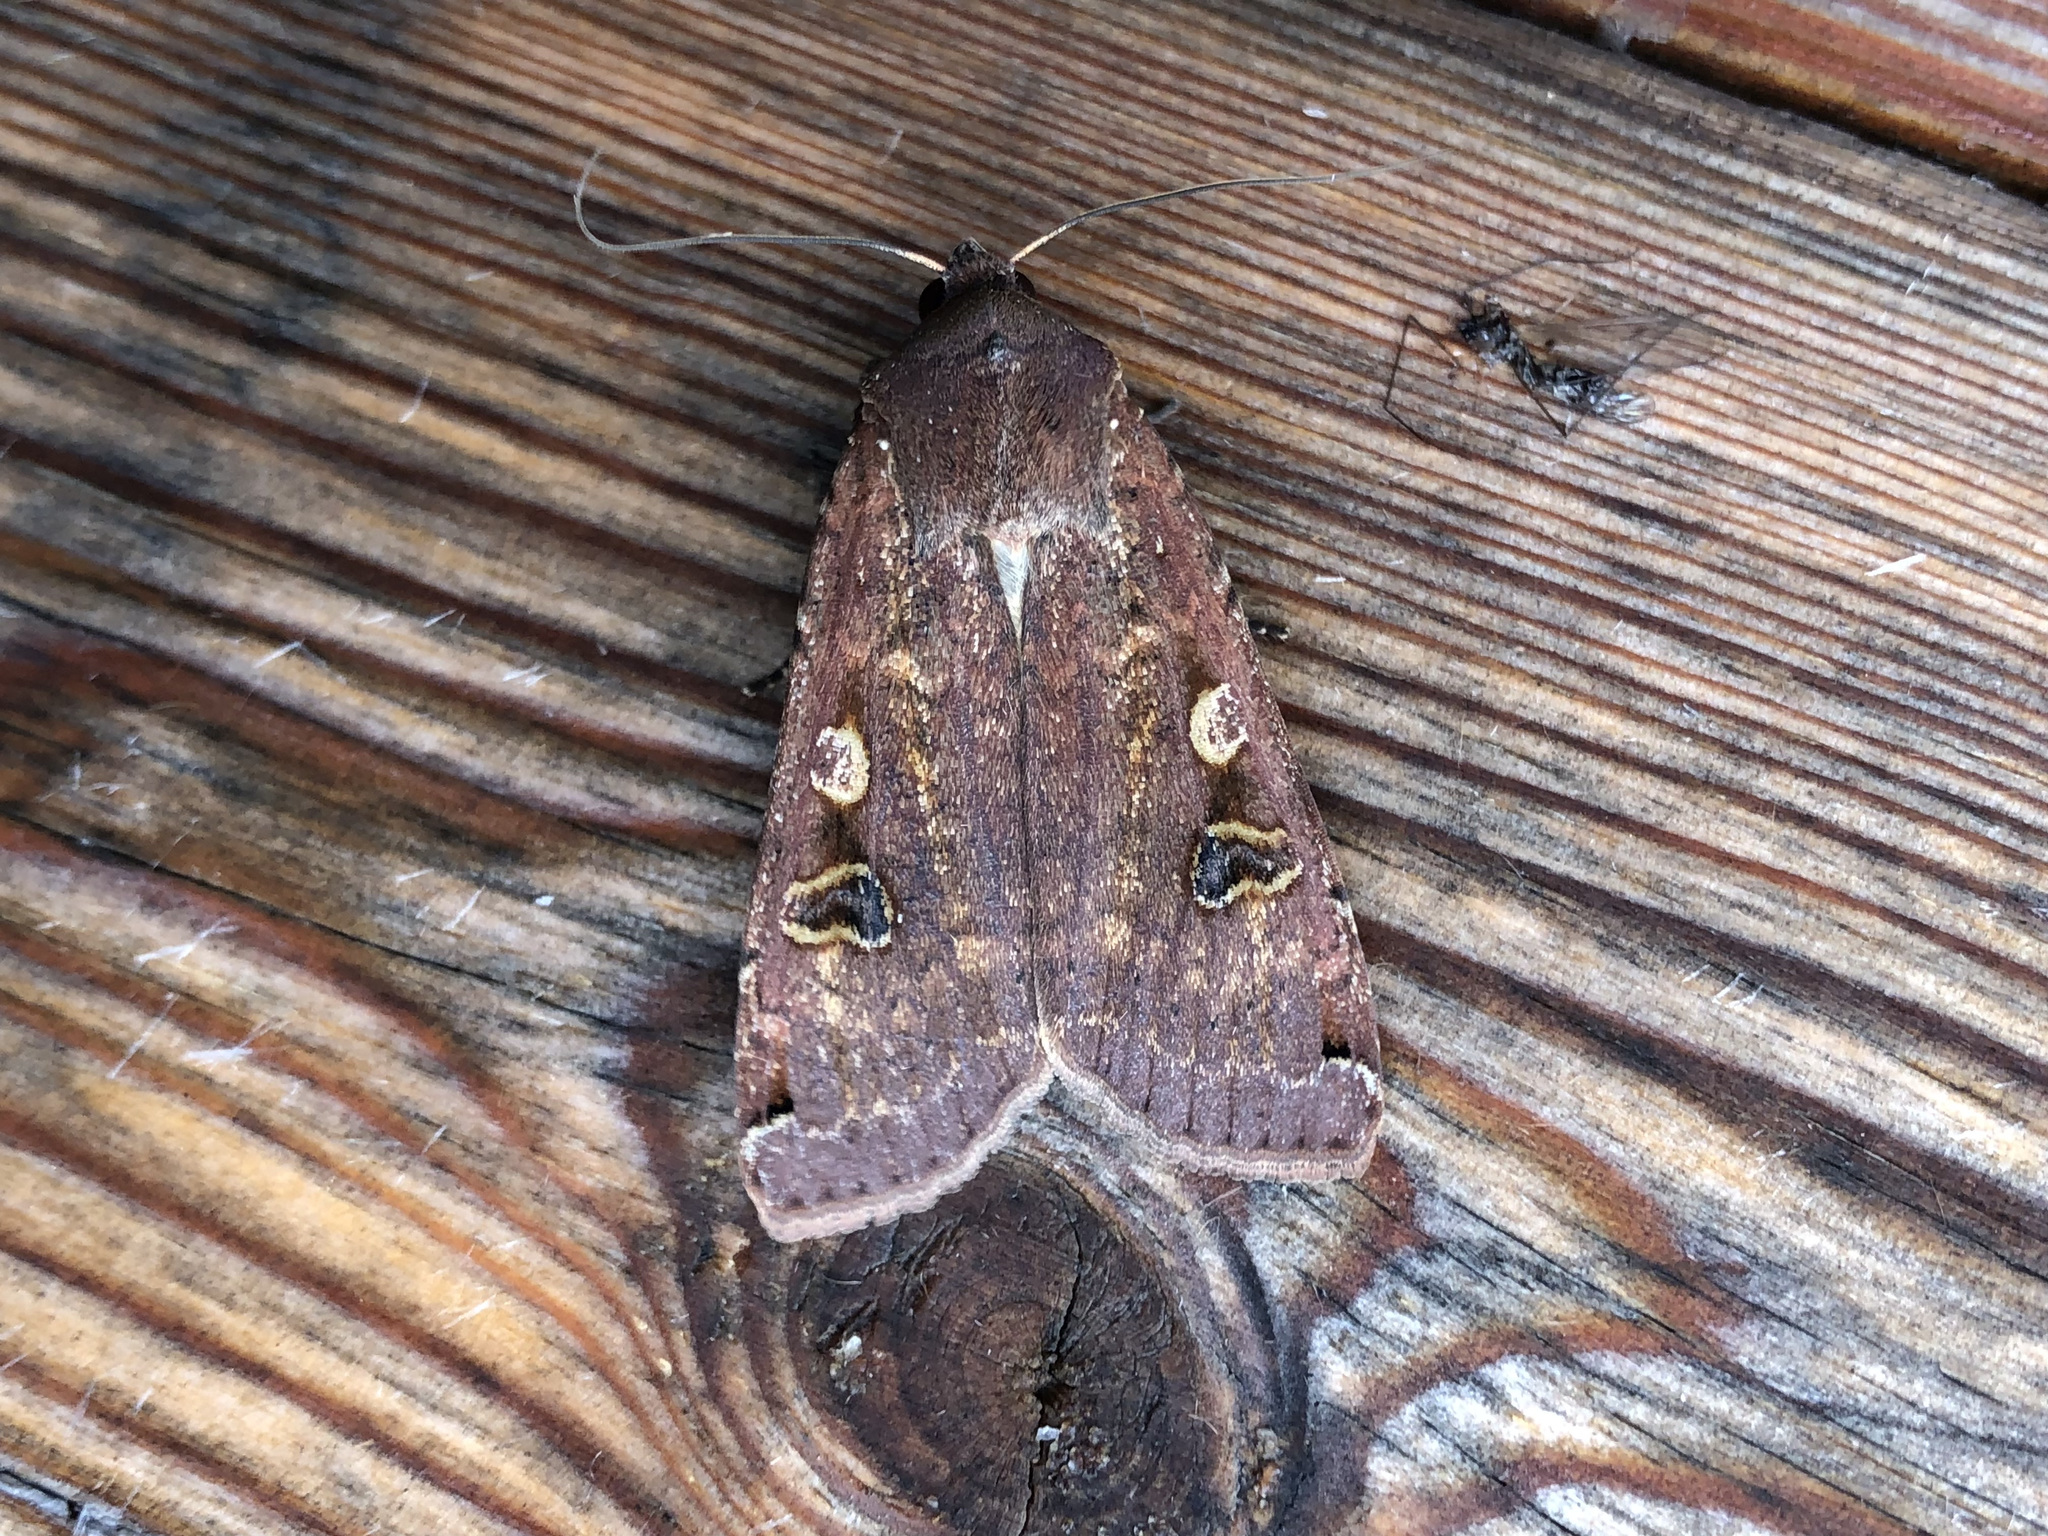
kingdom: Animalia
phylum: Arthropoda
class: Insecta
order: Lepidoptera
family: Noctuidae
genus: Noctua
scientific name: Noctua pronuba
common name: Large yellow underwing
